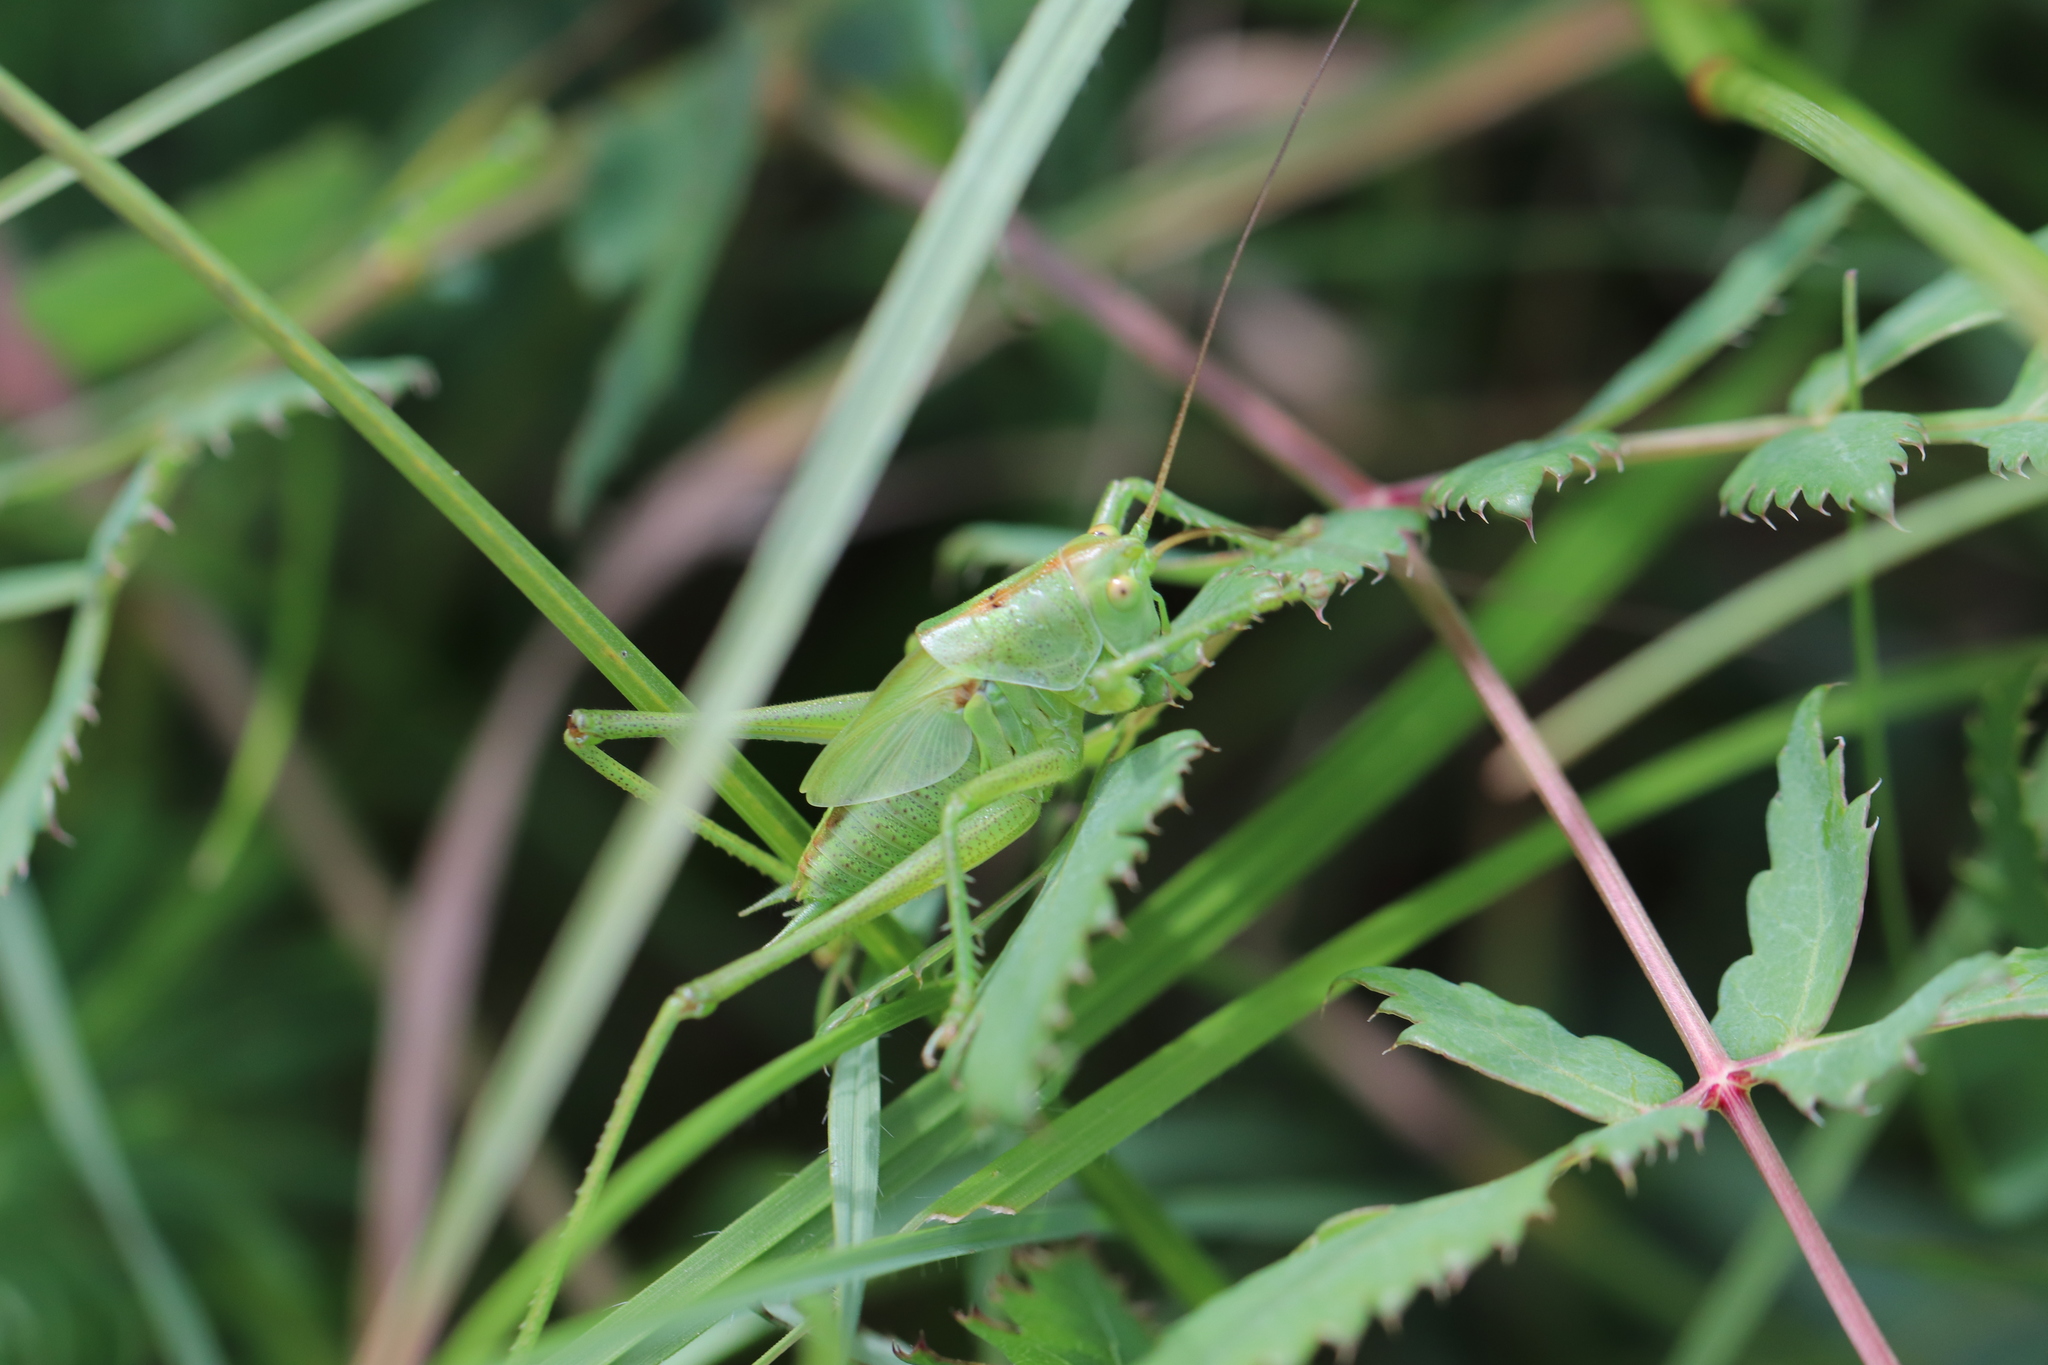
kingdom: Animalia
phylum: Arthropoda
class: Insecta
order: Orthoptera
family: Tettigoniidae
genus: Tettigonia
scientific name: Tettigonia viridissima
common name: Great green bush-cricket
